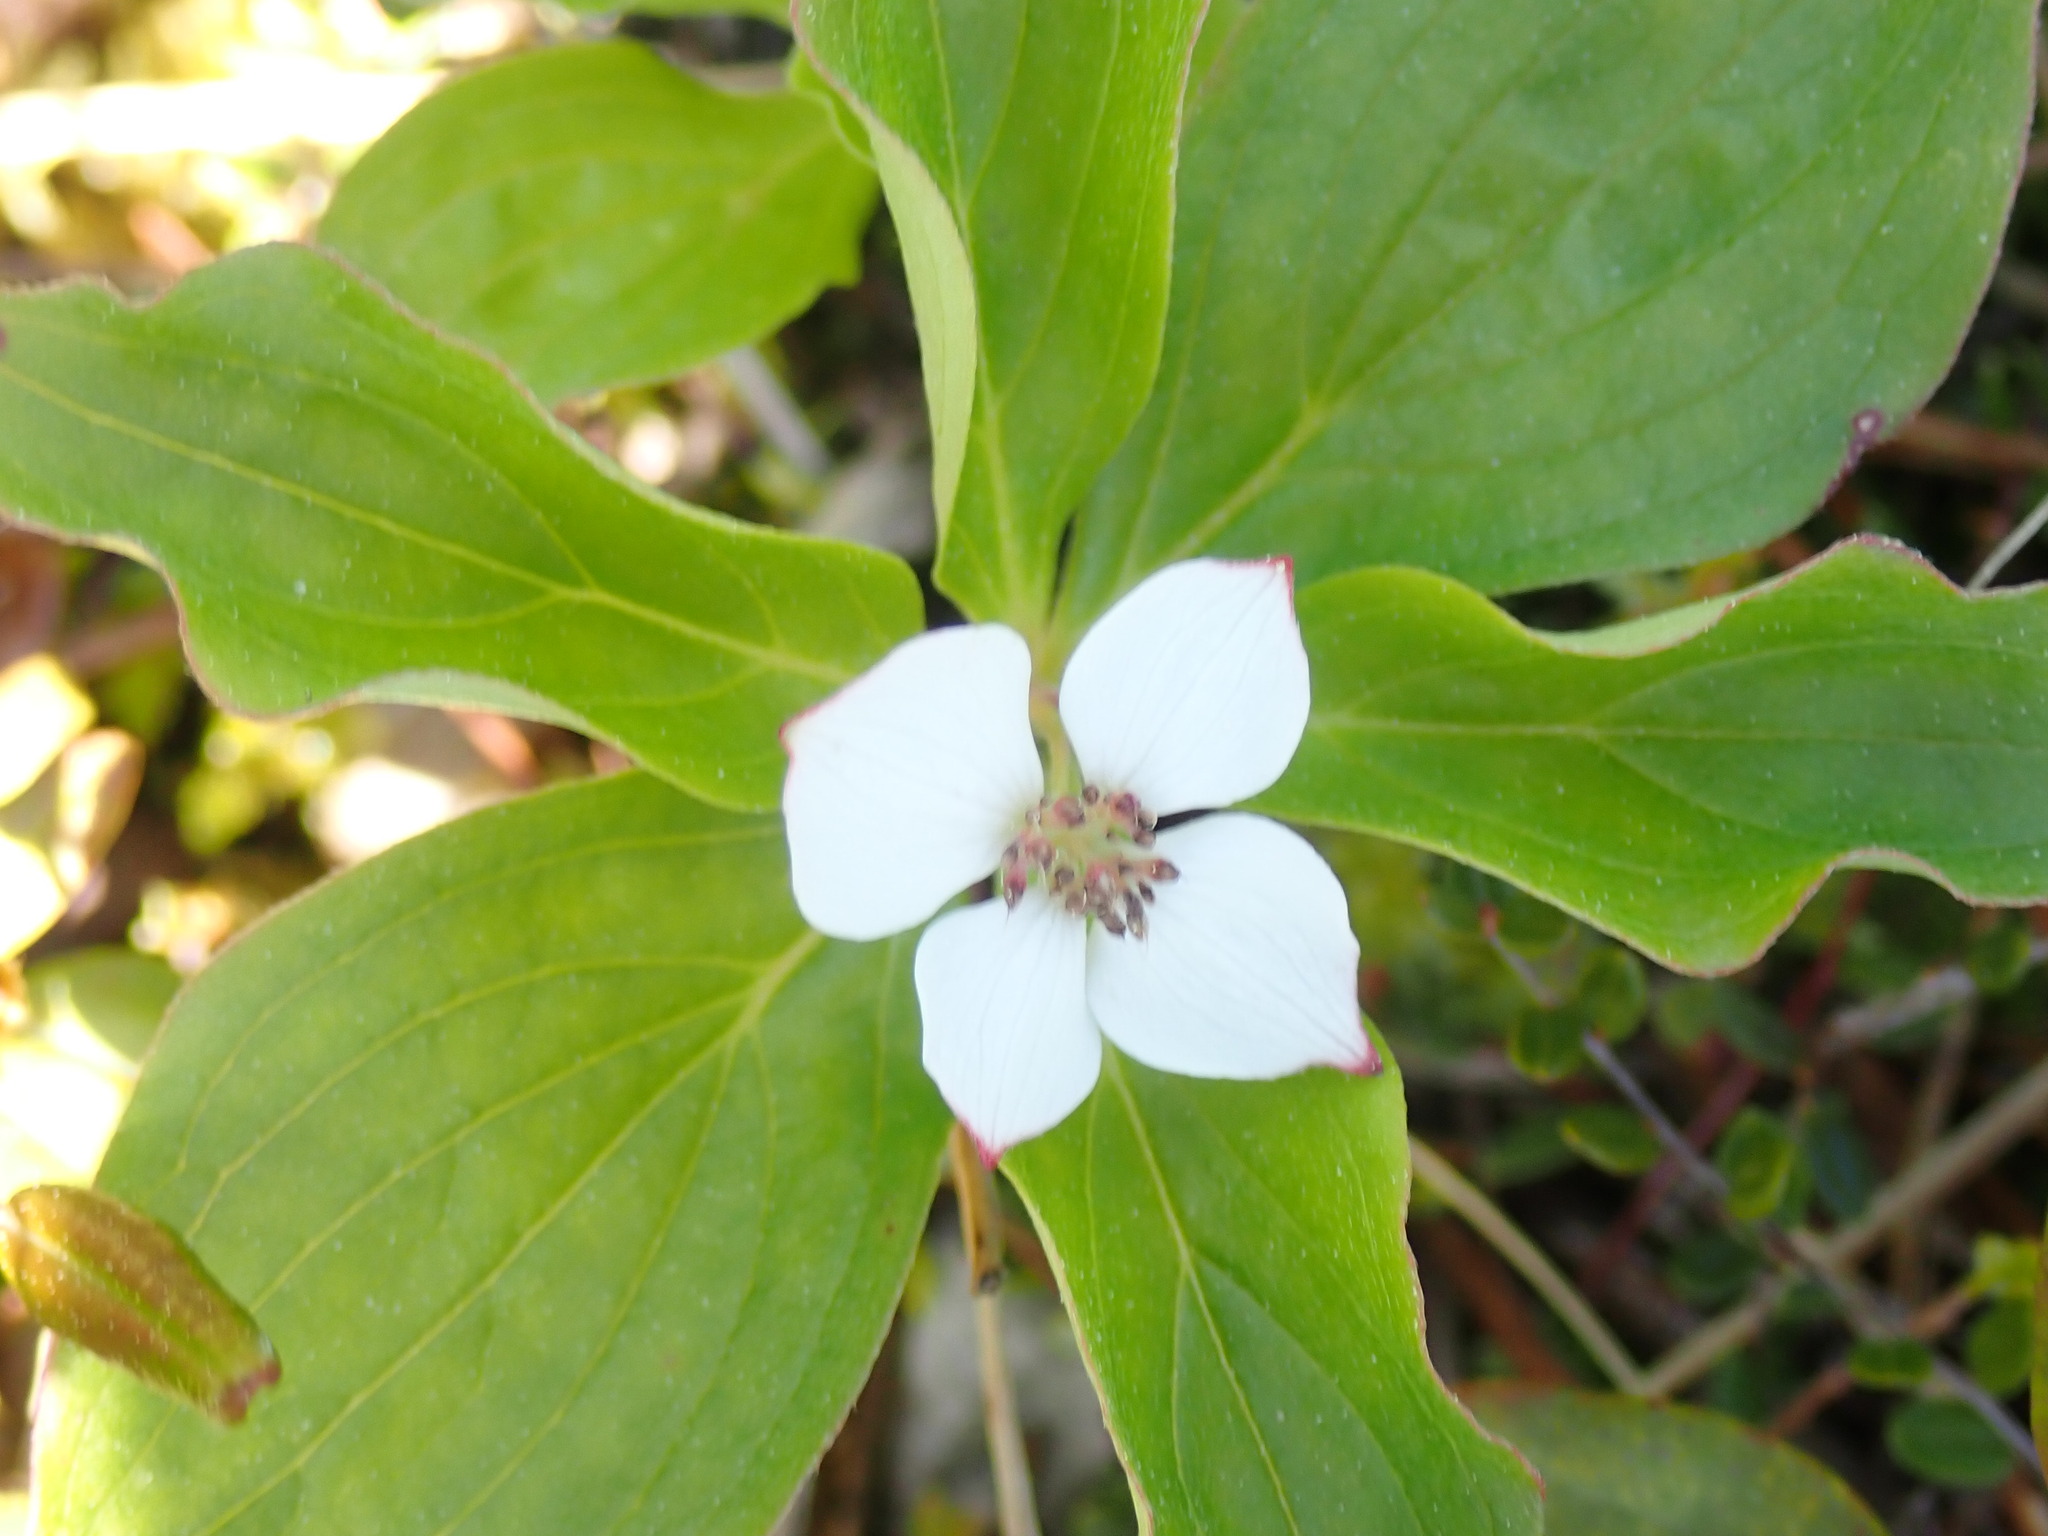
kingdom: Plantae
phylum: Tracheophyta
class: Magnoliopsida
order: Cornales
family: Cornaceae
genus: Cornus
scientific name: Cornus unalaschkensis
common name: Alaska bunchberry
